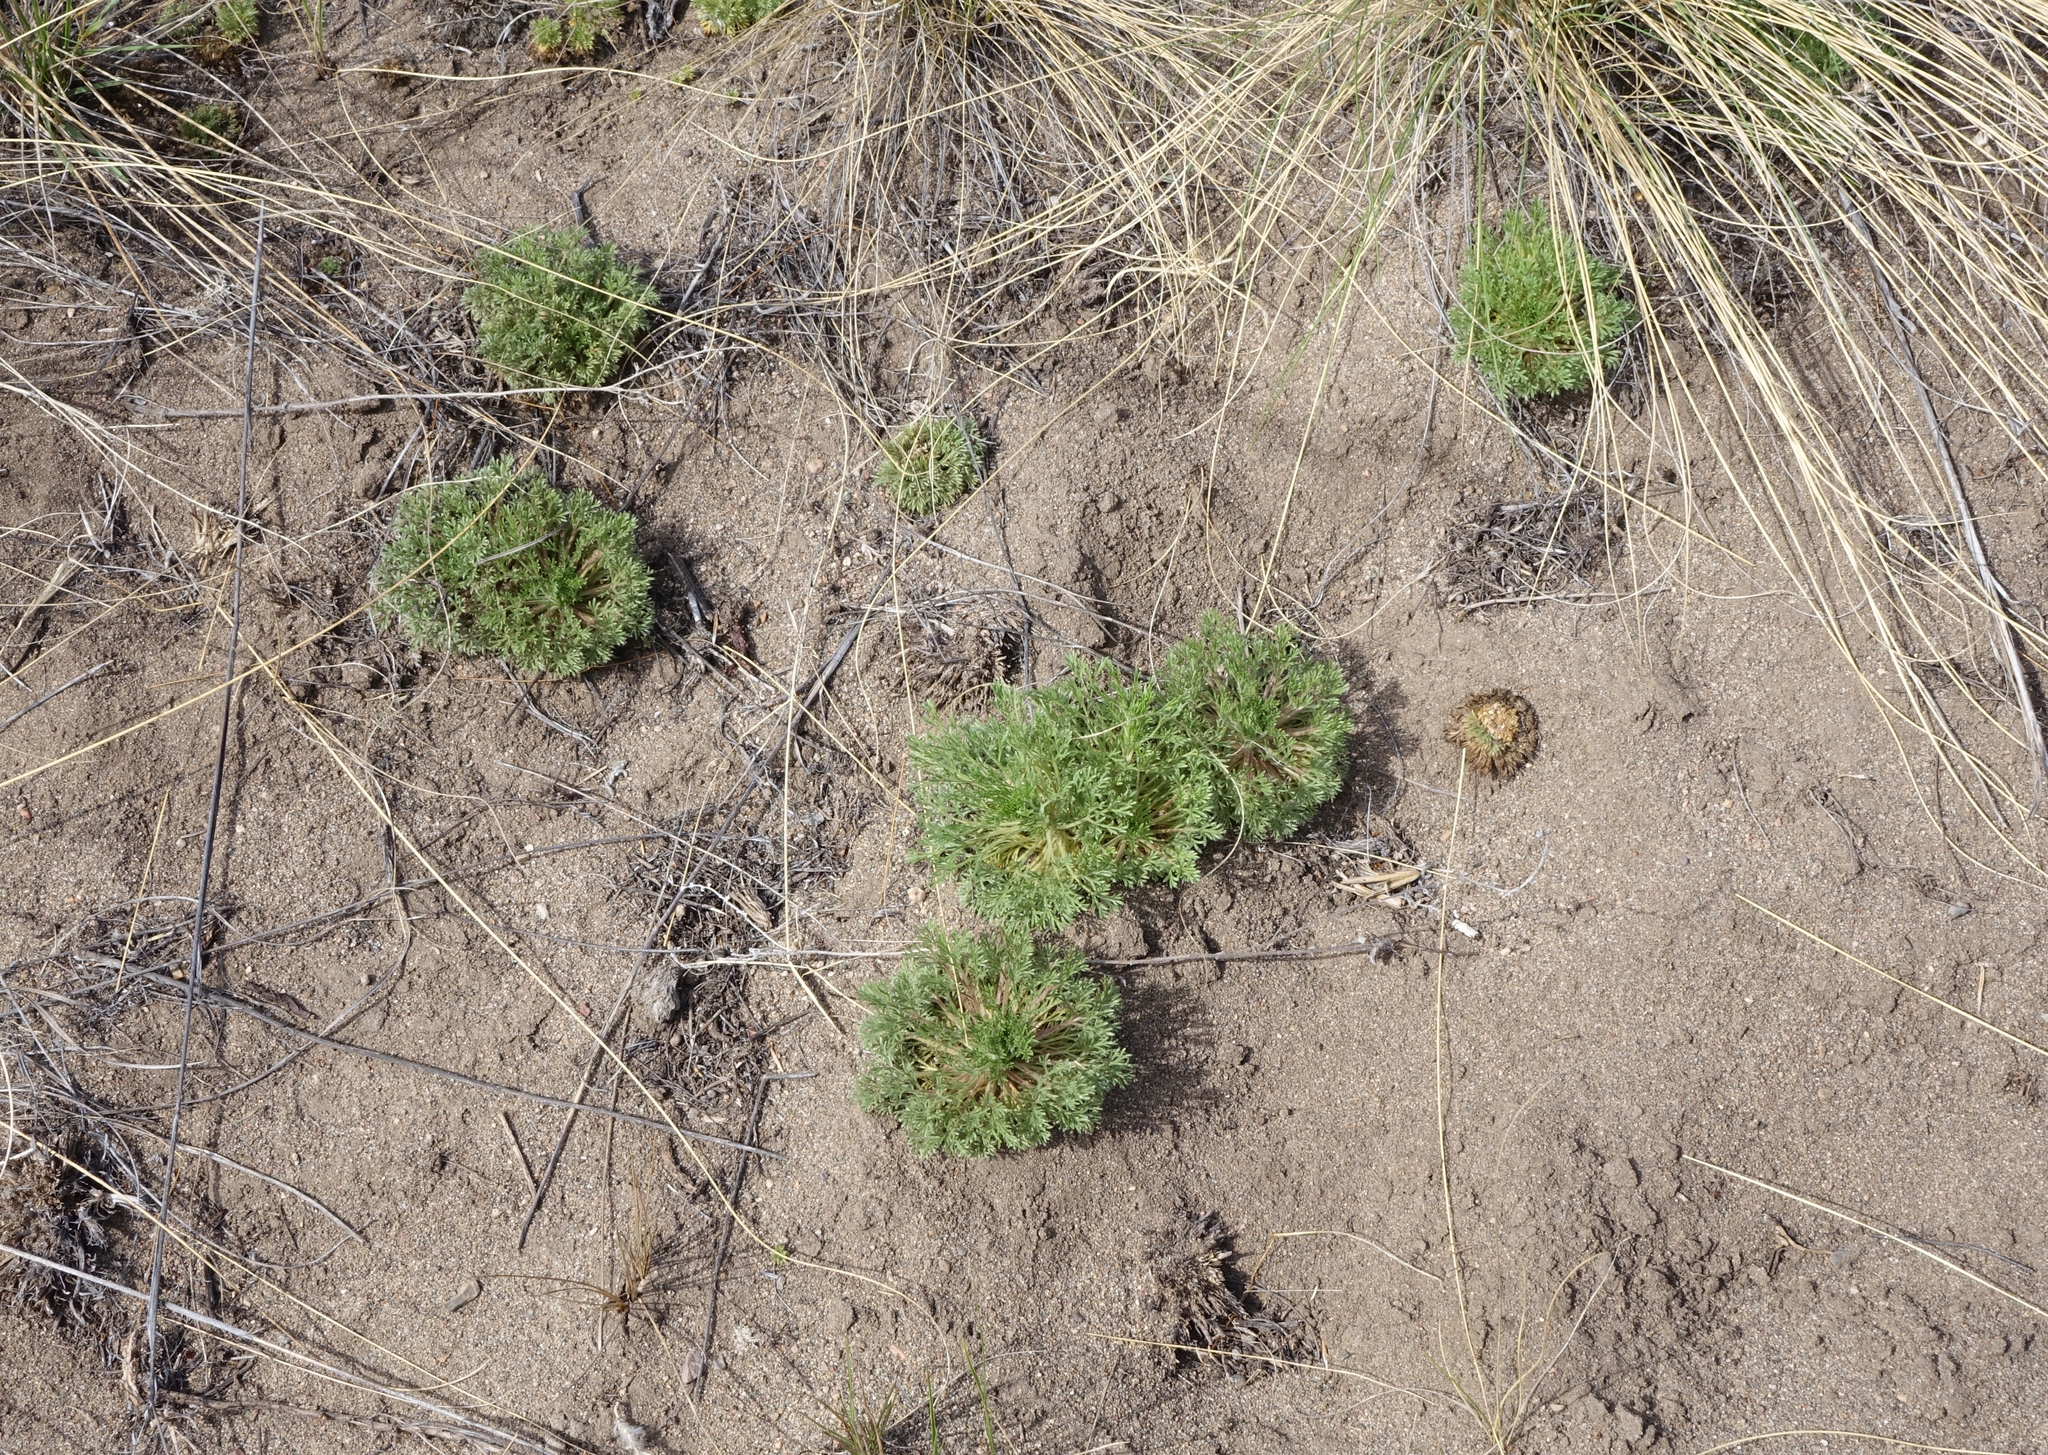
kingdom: Plantae
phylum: Tracheophyta
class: Magnoliopsida
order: Rosales
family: Rosaceae
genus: Chamaerhodos
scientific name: Chamaerhodos erecta
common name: American chamaerhodos
